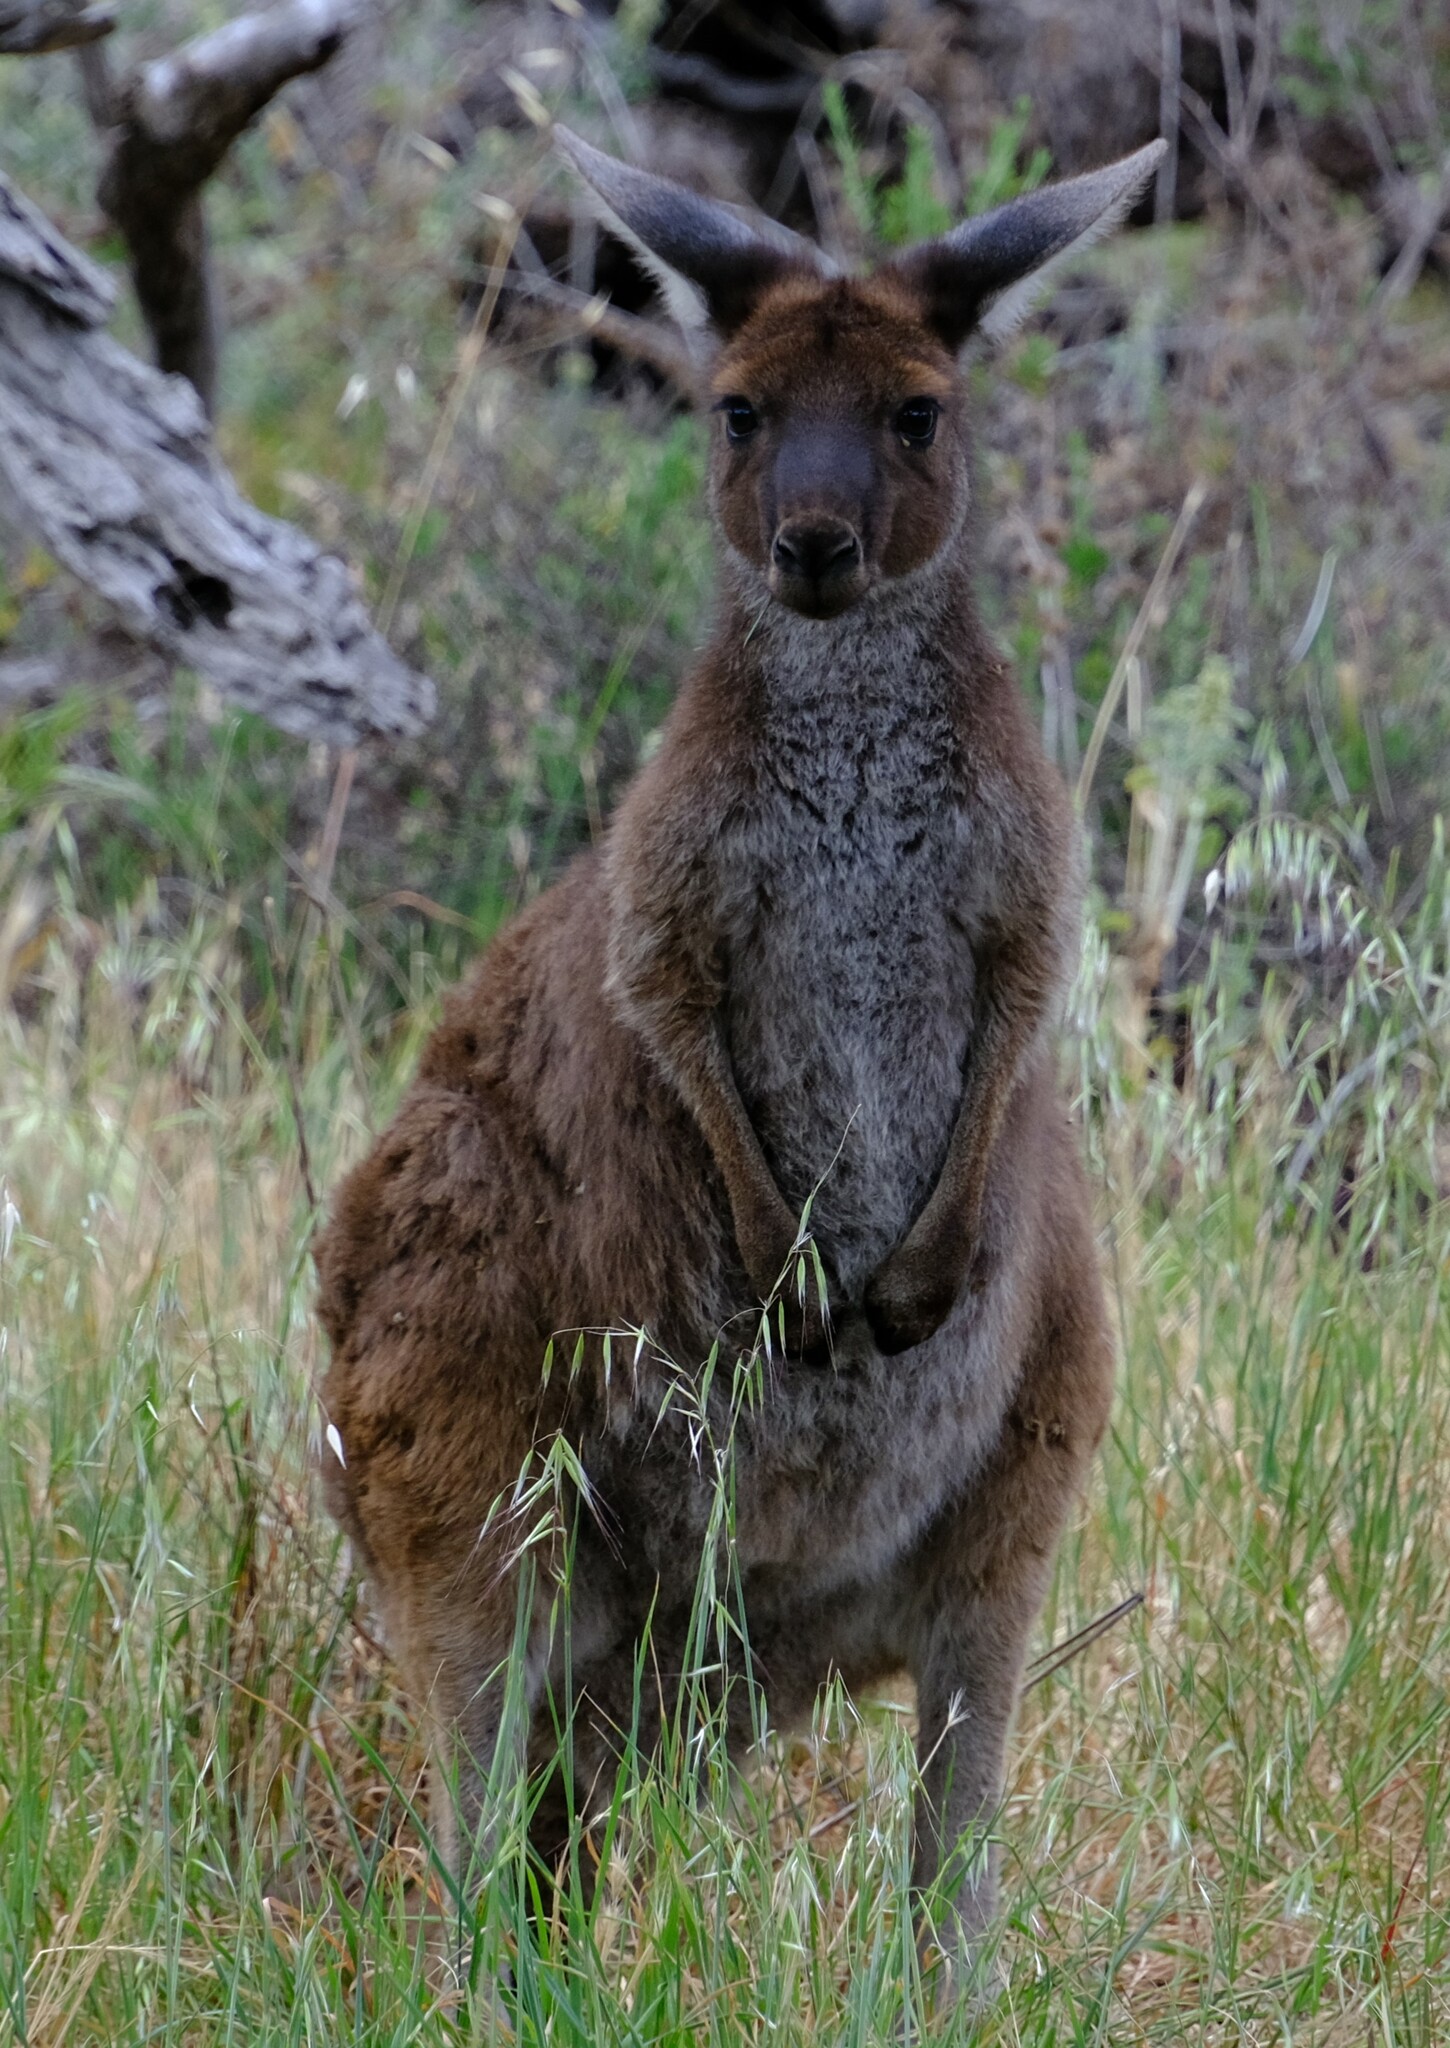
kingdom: Animalia
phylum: Chordata
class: Mammalia
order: Diprotodontia
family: Macropodidae
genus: Macropus
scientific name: Macropus fuliginosus
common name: Western grey kangaroo
